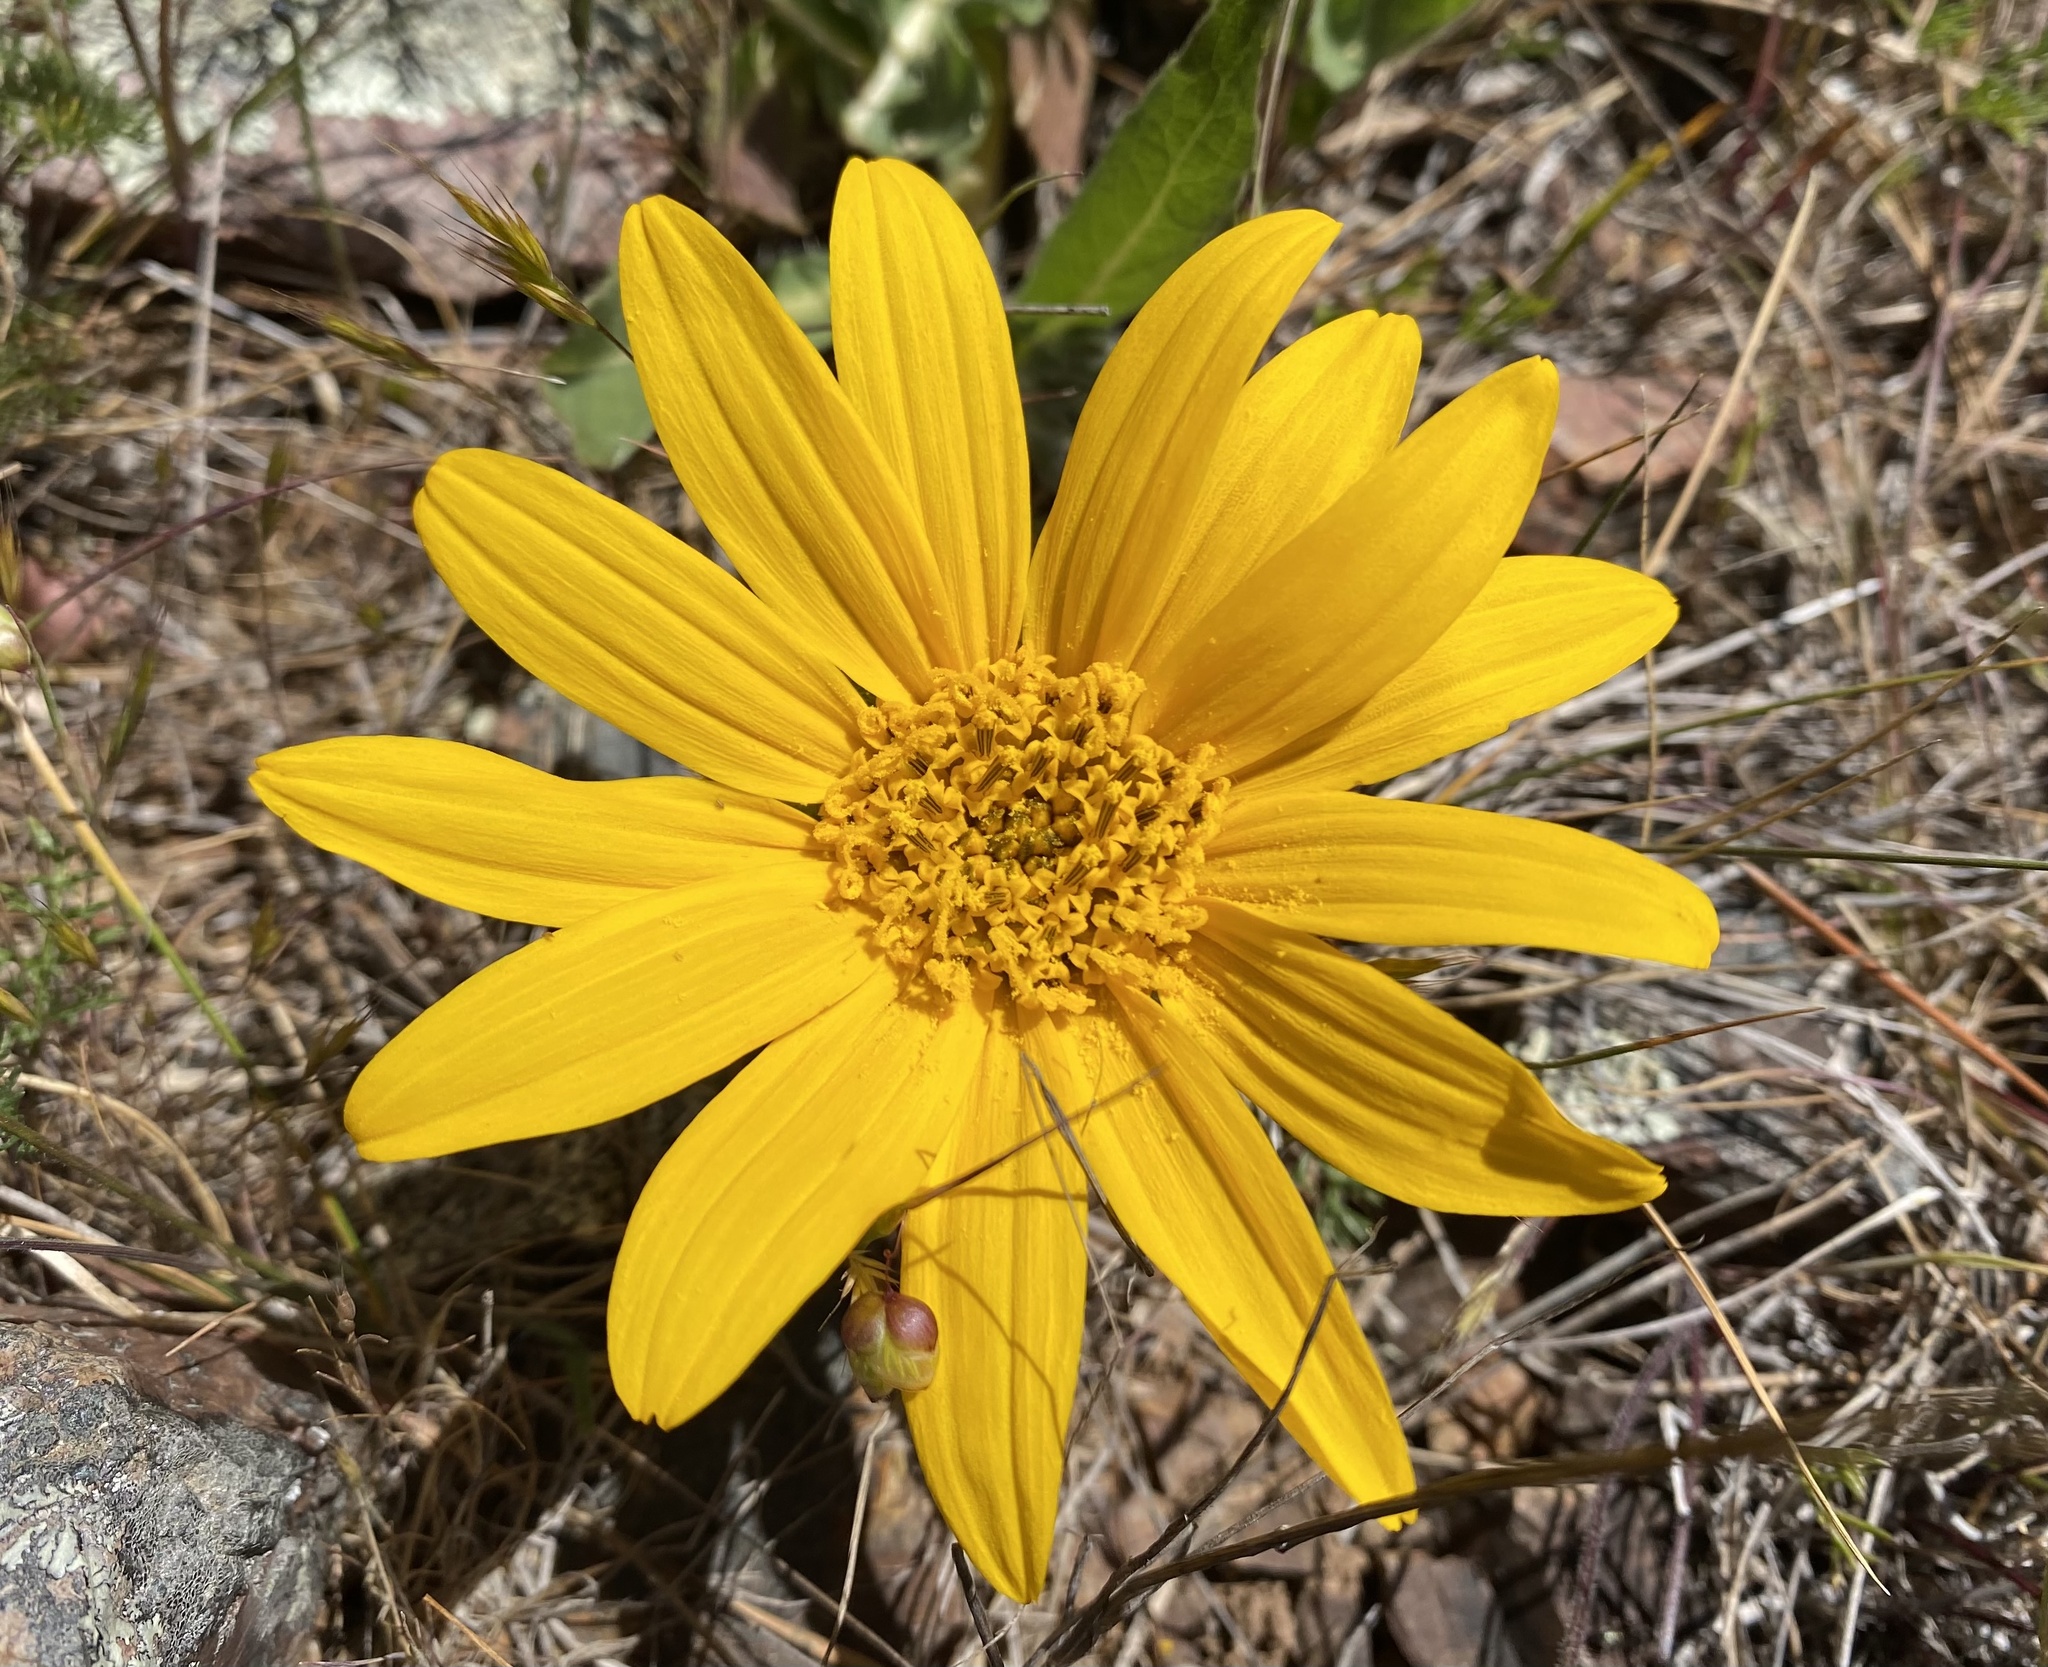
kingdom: Plantae
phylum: Tracheophyta
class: Magnoliopsida
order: Asterales
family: Asteraceae
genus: Wyethia
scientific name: Wyethia angustifolia
